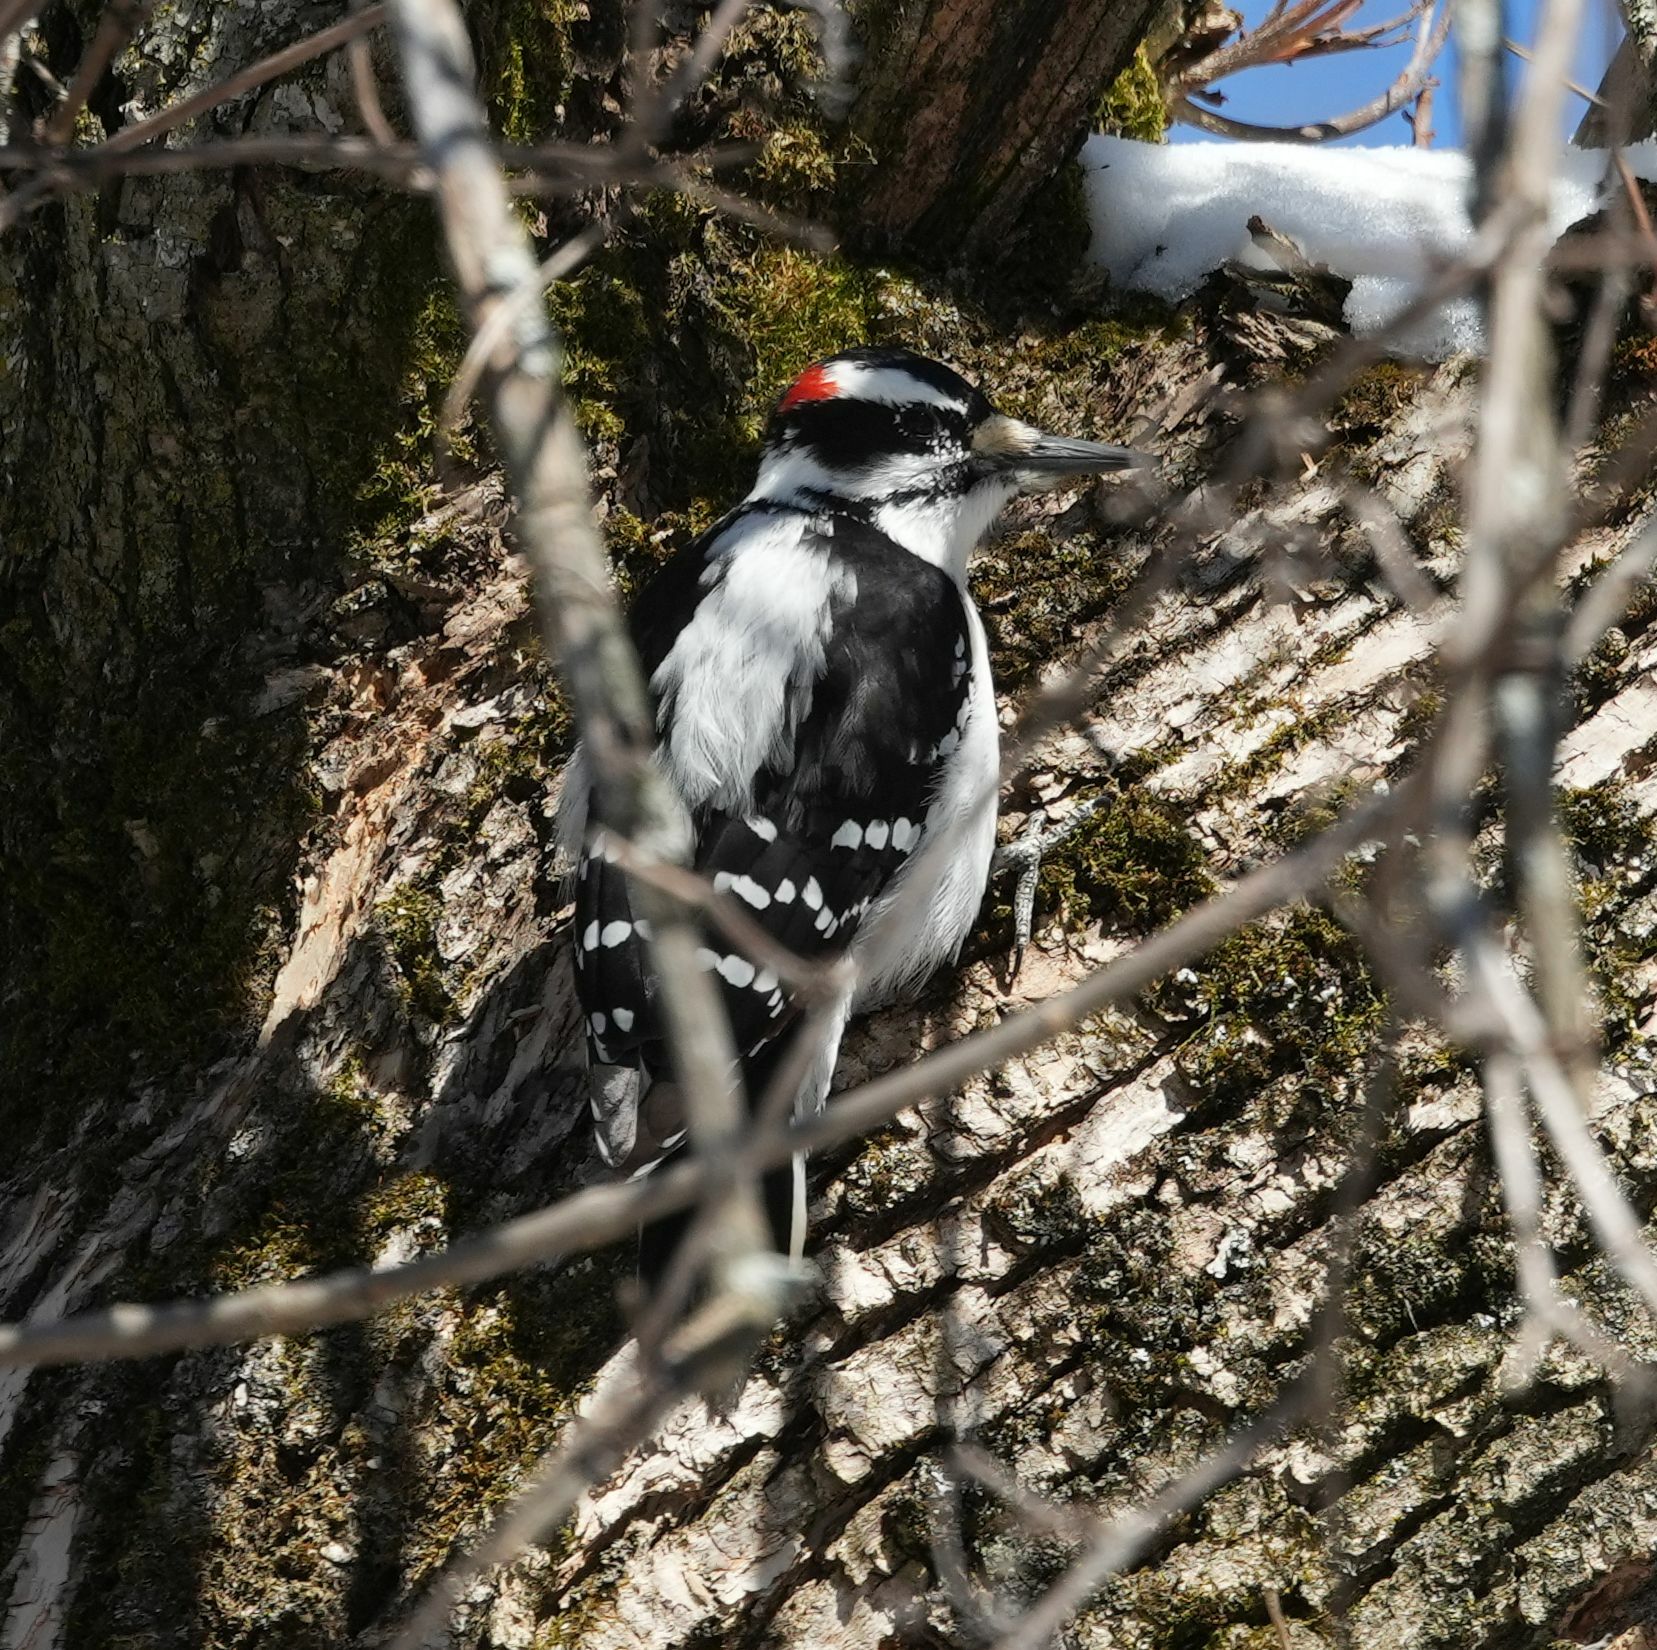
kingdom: Animalia
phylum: Chordata
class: Aves
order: Piciformes
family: Picidae
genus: Leuconotopicus
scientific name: Leuconotopicus villosus
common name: Hairy woodpecker
